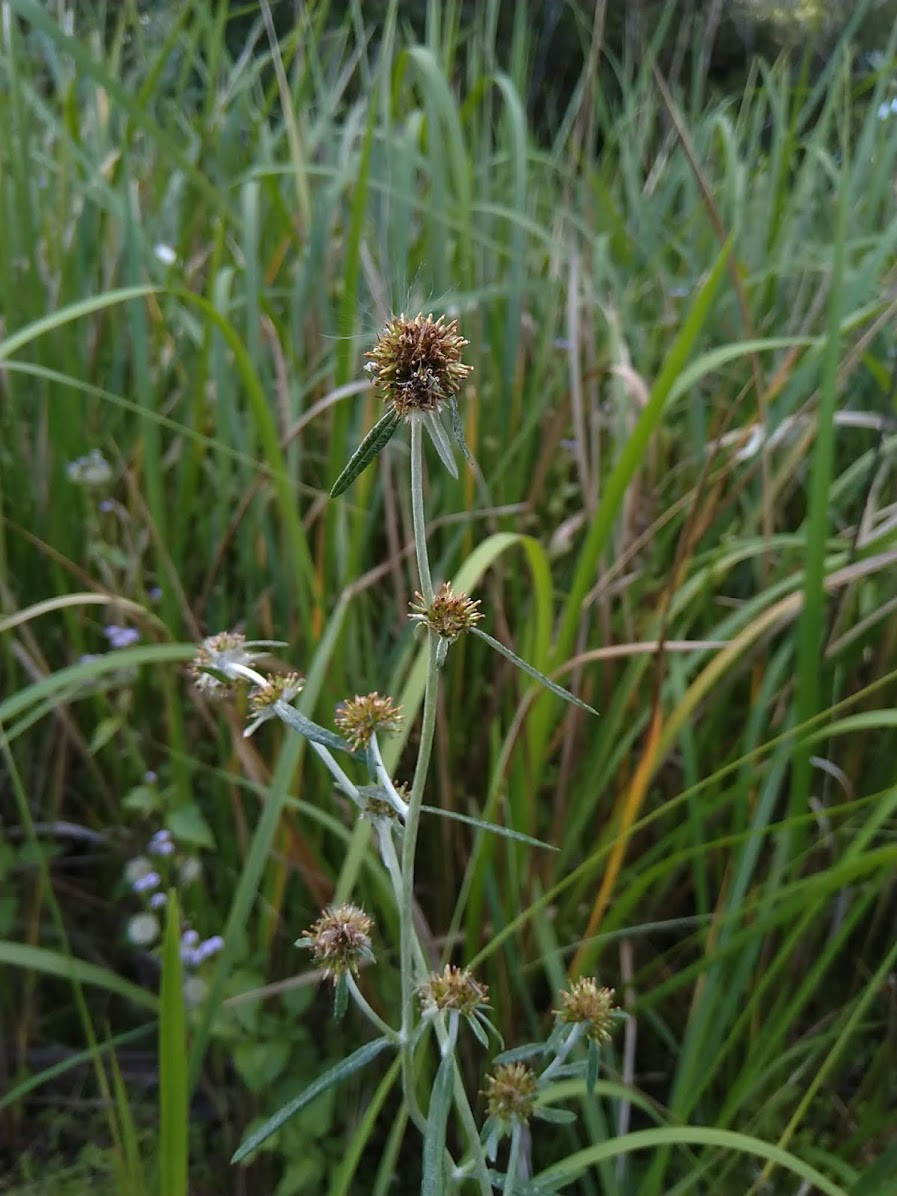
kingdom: Plantae
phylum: Tracheophyta
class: Magnoliopsida
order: Asterales
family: Asteraceae
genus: Euchiton
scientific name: Euchiton sphaericus
